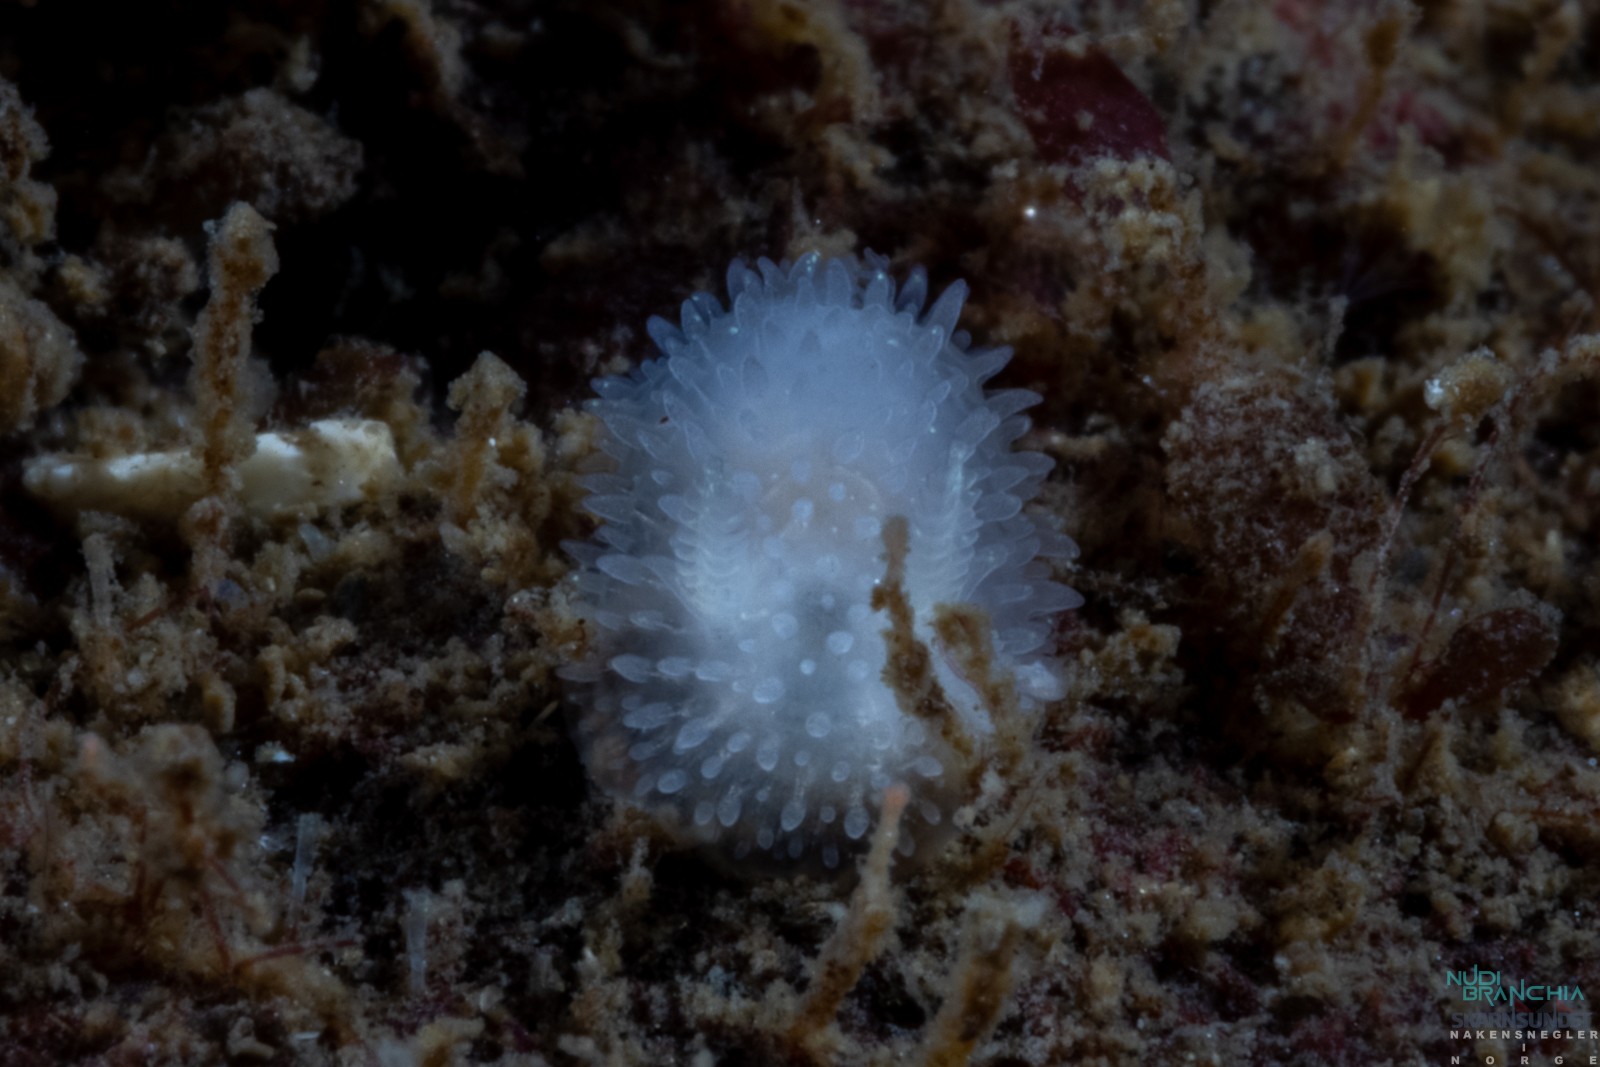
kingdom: Animalia
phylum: Mollusca
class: Gastropoda
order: Nudibranchia
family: Onchidorididae
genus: Acanthodoris
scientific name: Acanthodoris pilosa
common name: Hairy spiny doris
